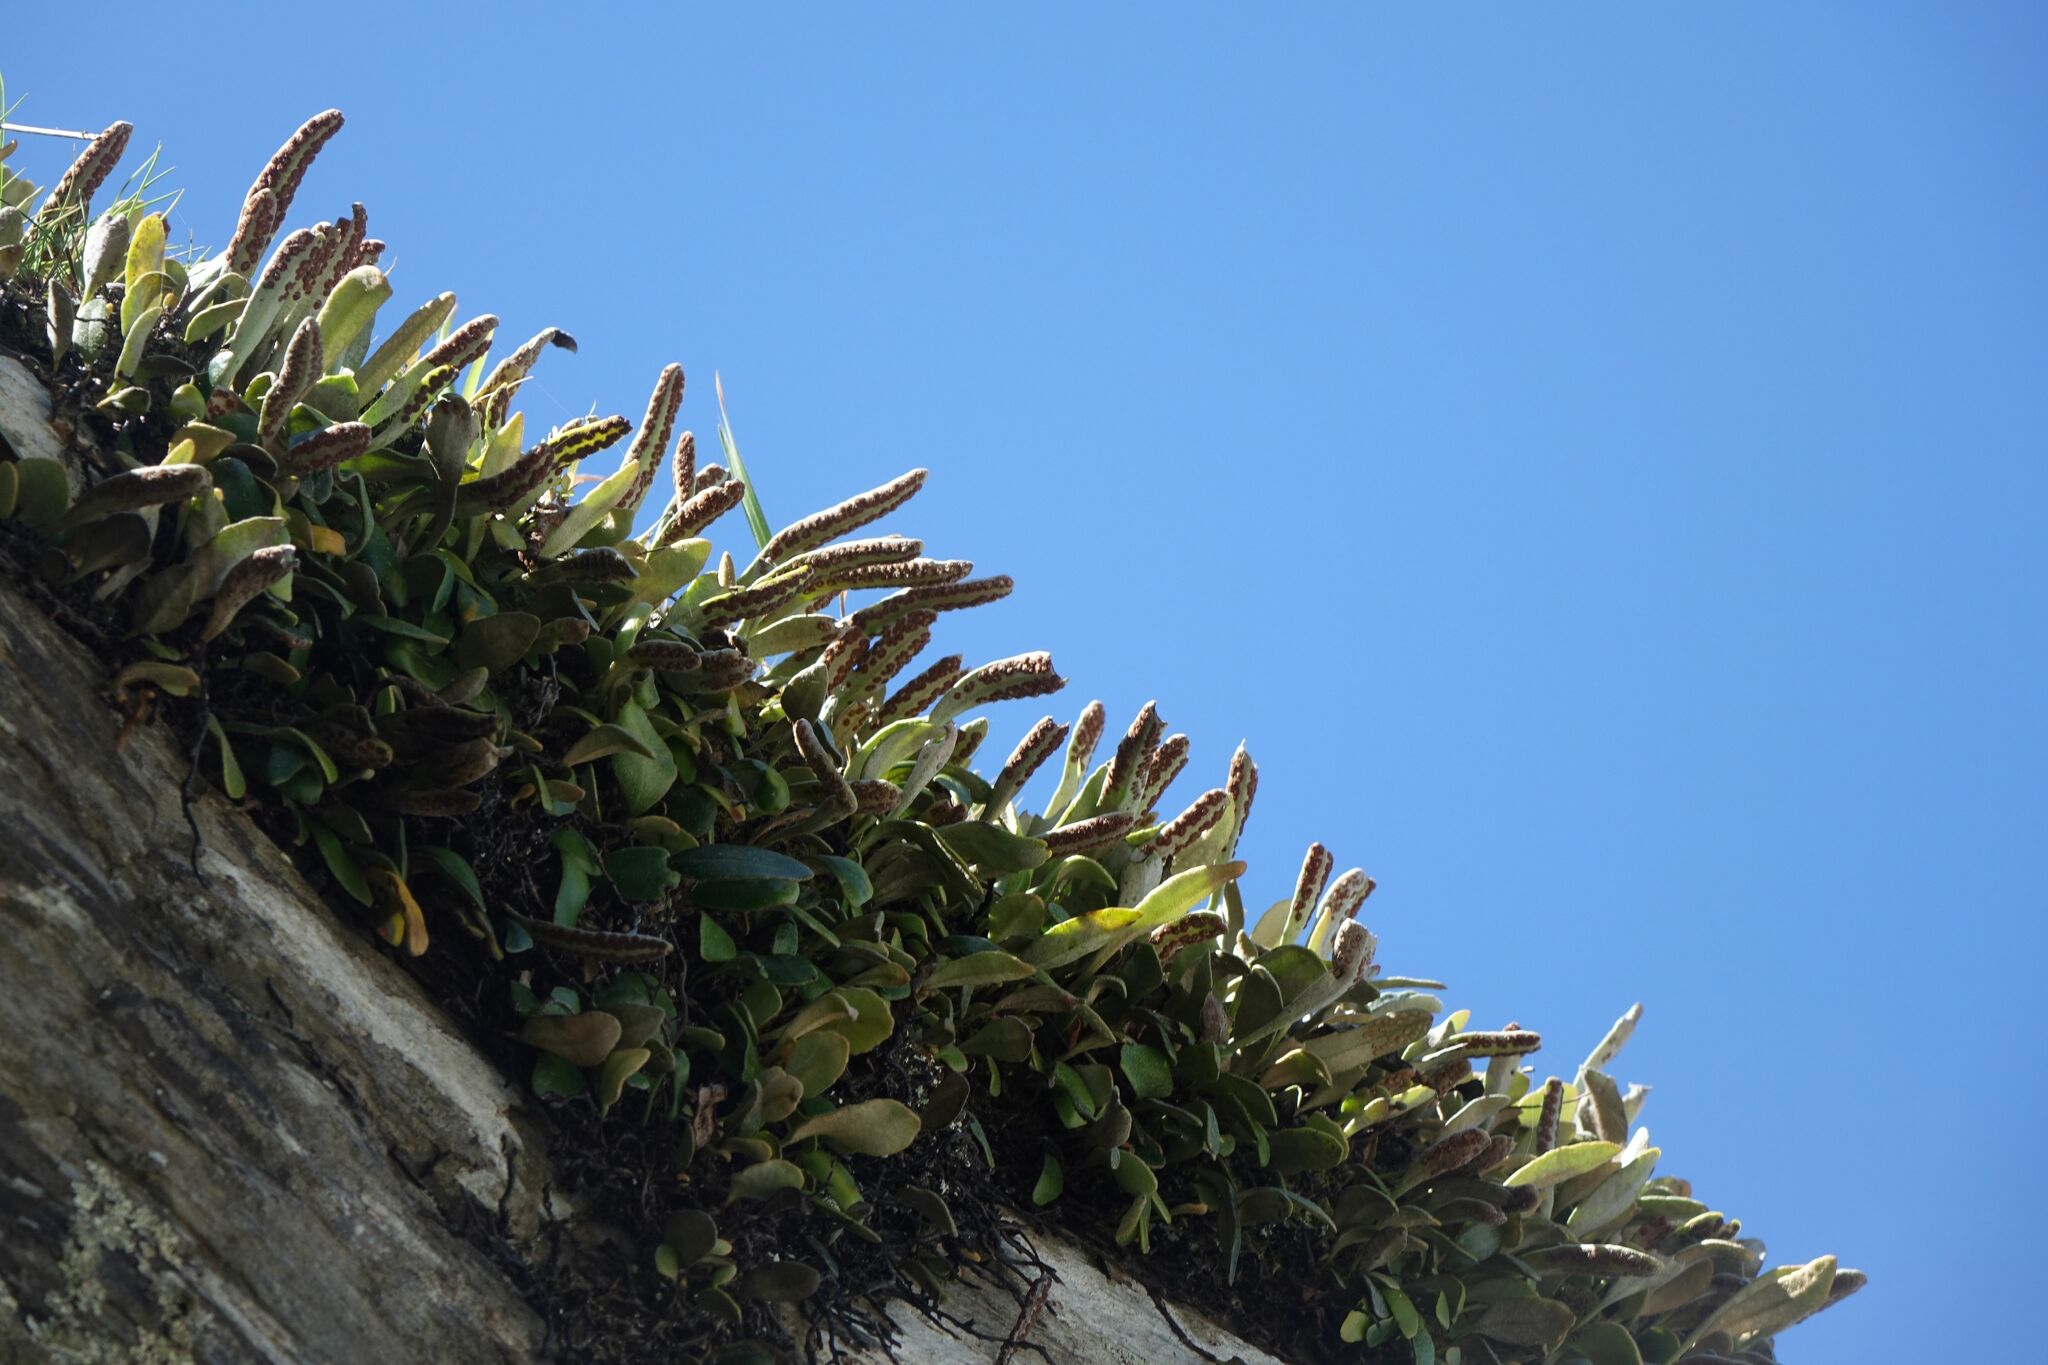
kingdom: Plantae
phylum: Tracheophyta
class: Polypodiopsida
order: Polypodiales
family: Polypodiaceae
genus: Pyrrosia
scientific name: Pyrrosia eleagnifolia
